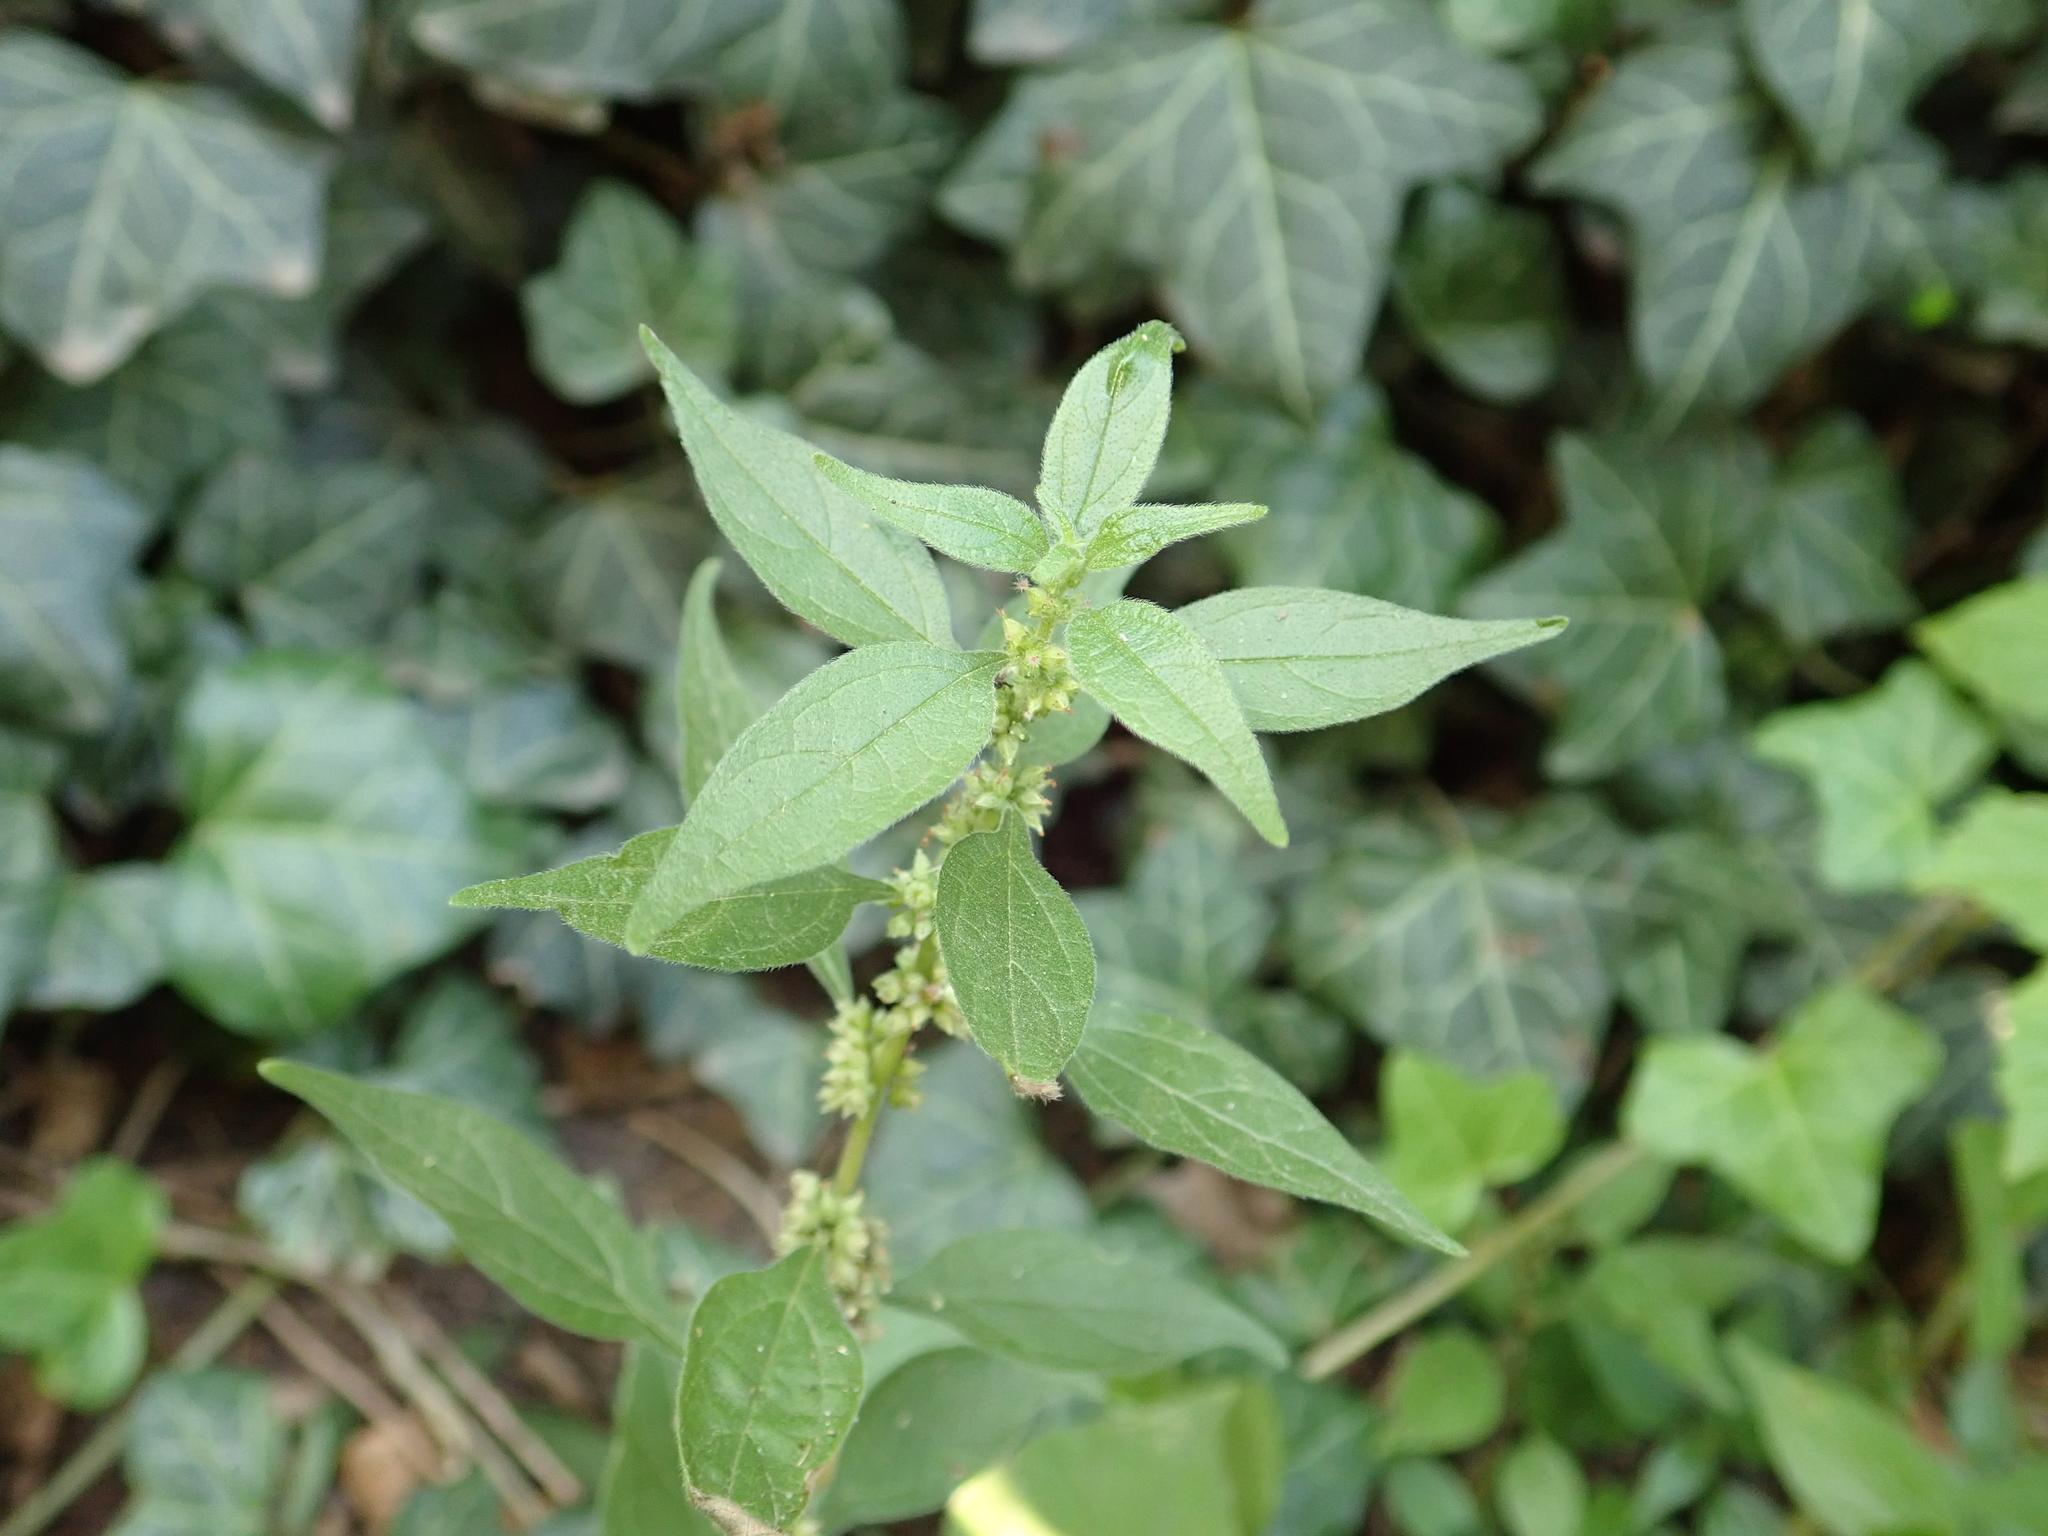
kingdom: Plantae
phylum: Tracheophyta
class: Magnoliopsida
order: Rosales
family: Urticaceae
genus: Parietaria
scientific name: Parietaria officinalis
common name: Eastern pellitory-of-the-wall
